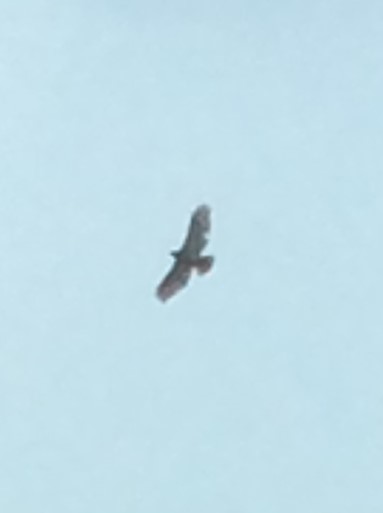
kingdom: Animalia
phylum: Chordata
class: Aves
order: Accipitriformes
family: Accipitridae
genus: Buteo
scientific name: Buteo jamaicensis
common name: Red-tailed hawk
